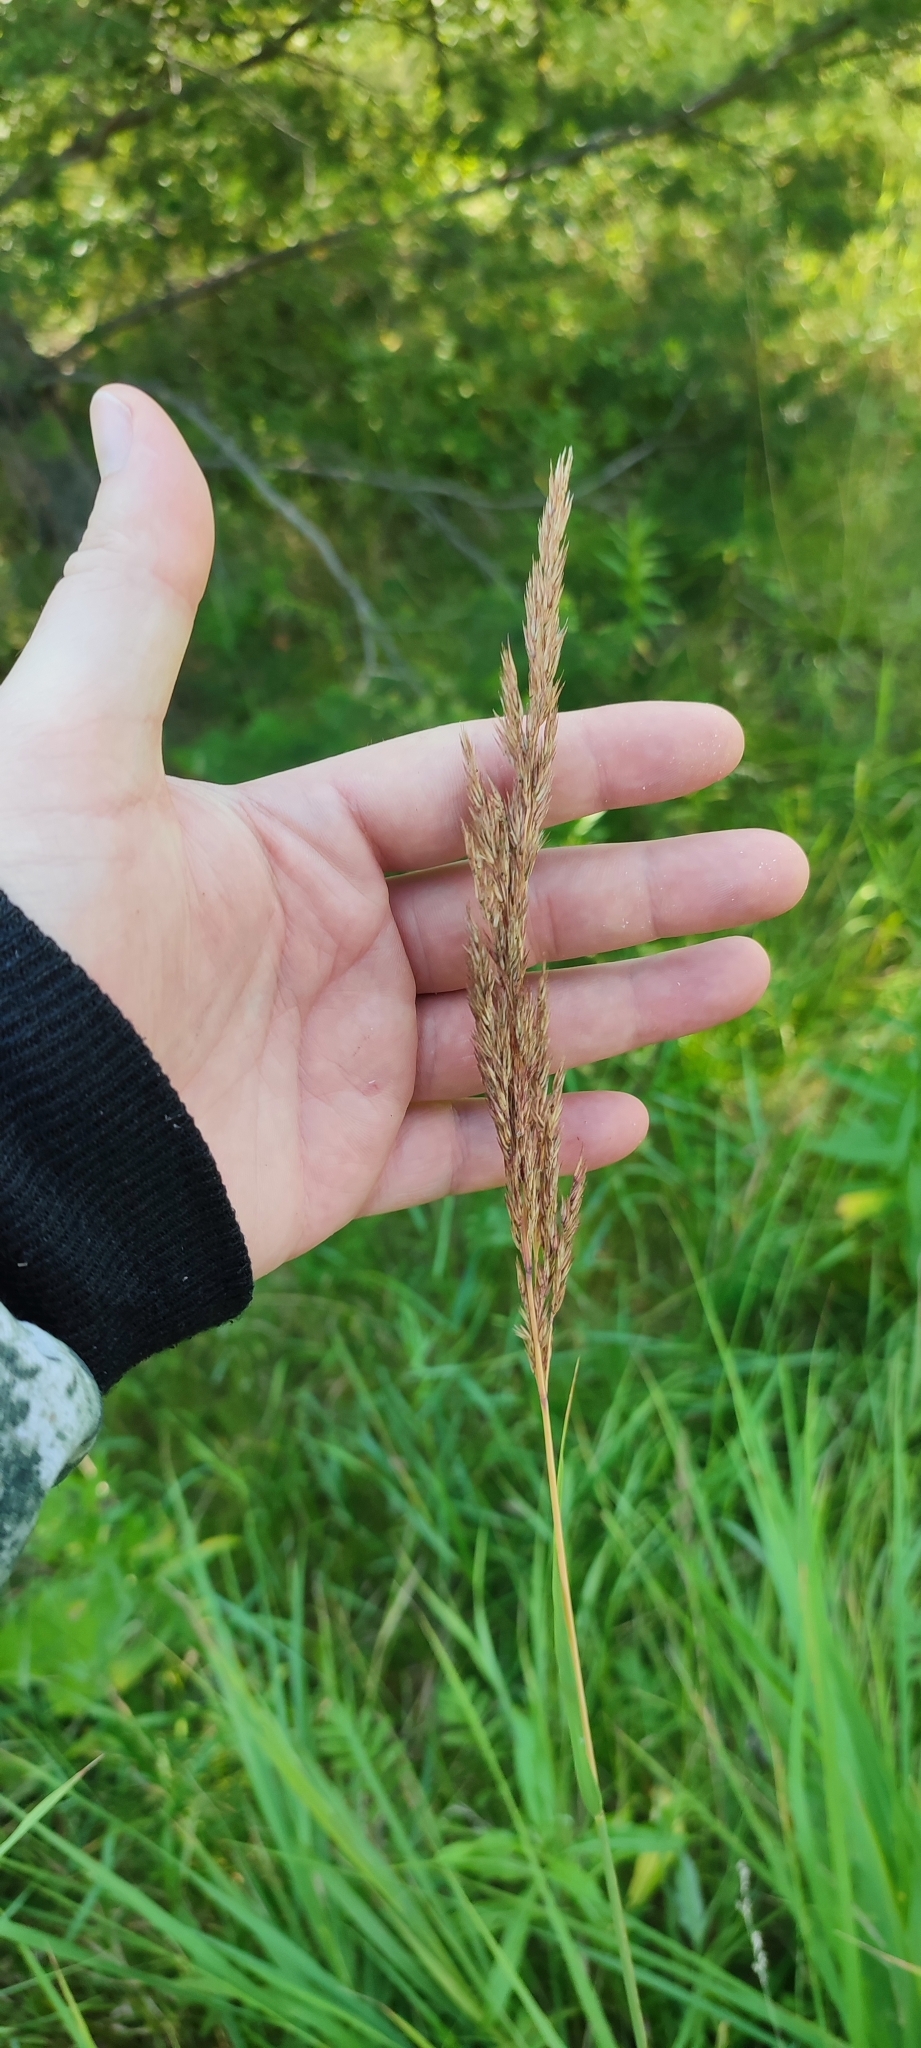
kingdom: Plantae
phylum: Tracheophyta
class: Liliopsida
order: Poales
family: Poaceae
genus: Calamagrostis
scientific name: Calamagrostis epigejos
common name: Wood small-reed
